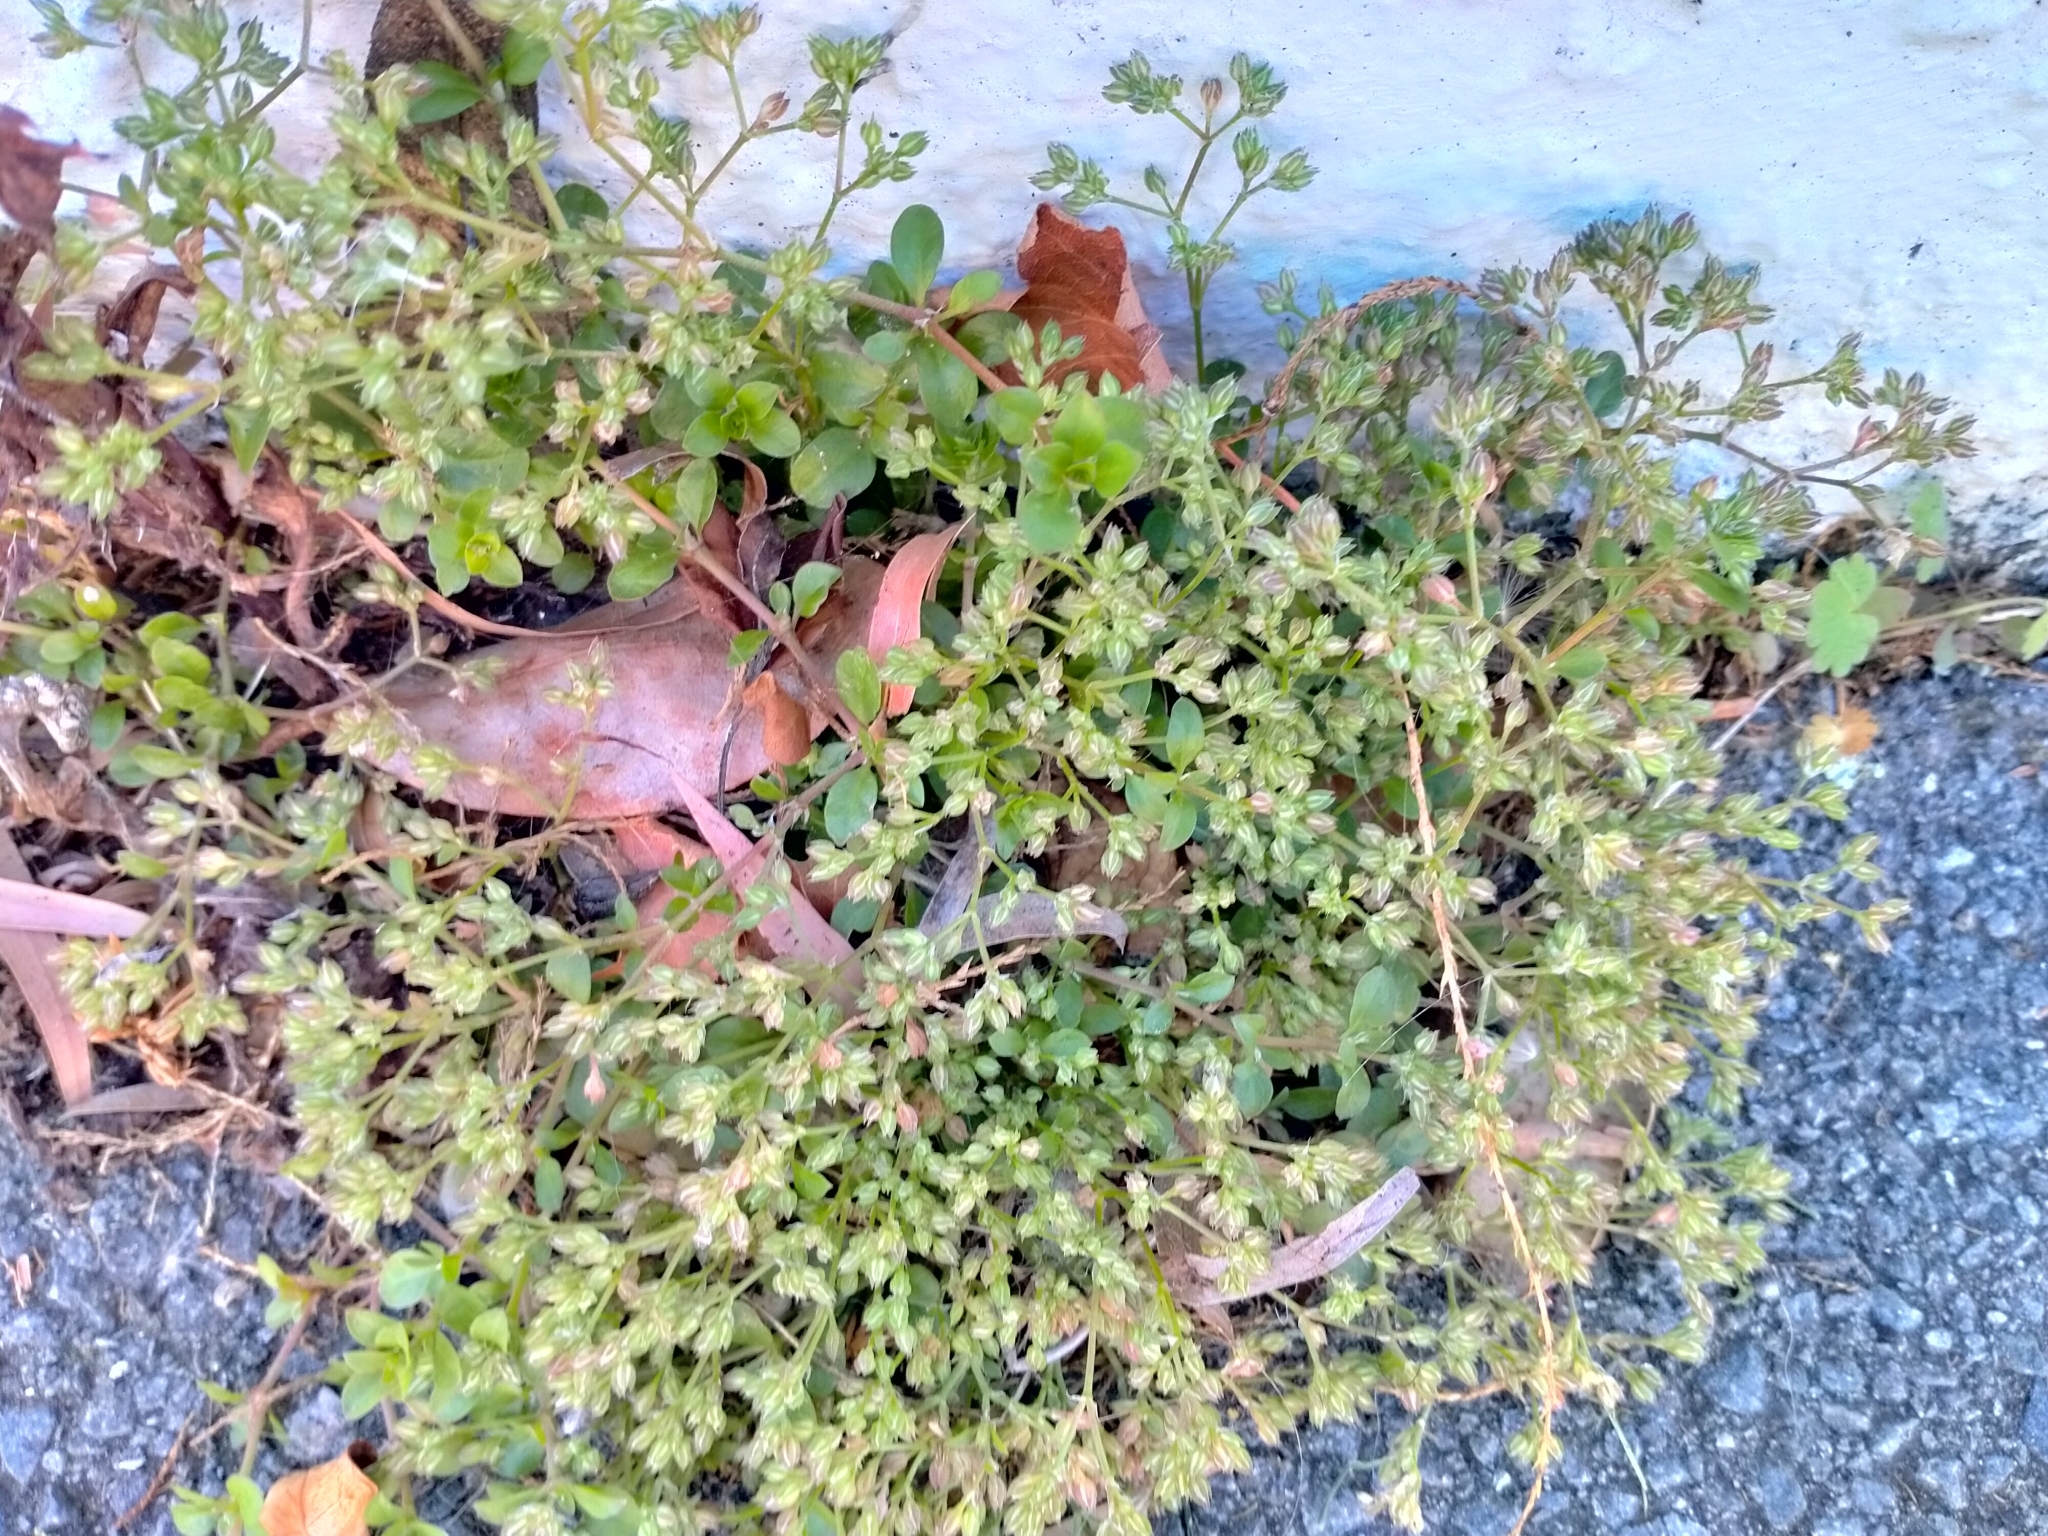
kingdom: Plantae
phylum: Tracheophyta
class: Magnoliopsida
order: Caryophyllales
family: Caryophyllaceae
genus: Polycarpon
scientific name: Polycarpon tetraphyllum
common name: Four-leaved all-seed
